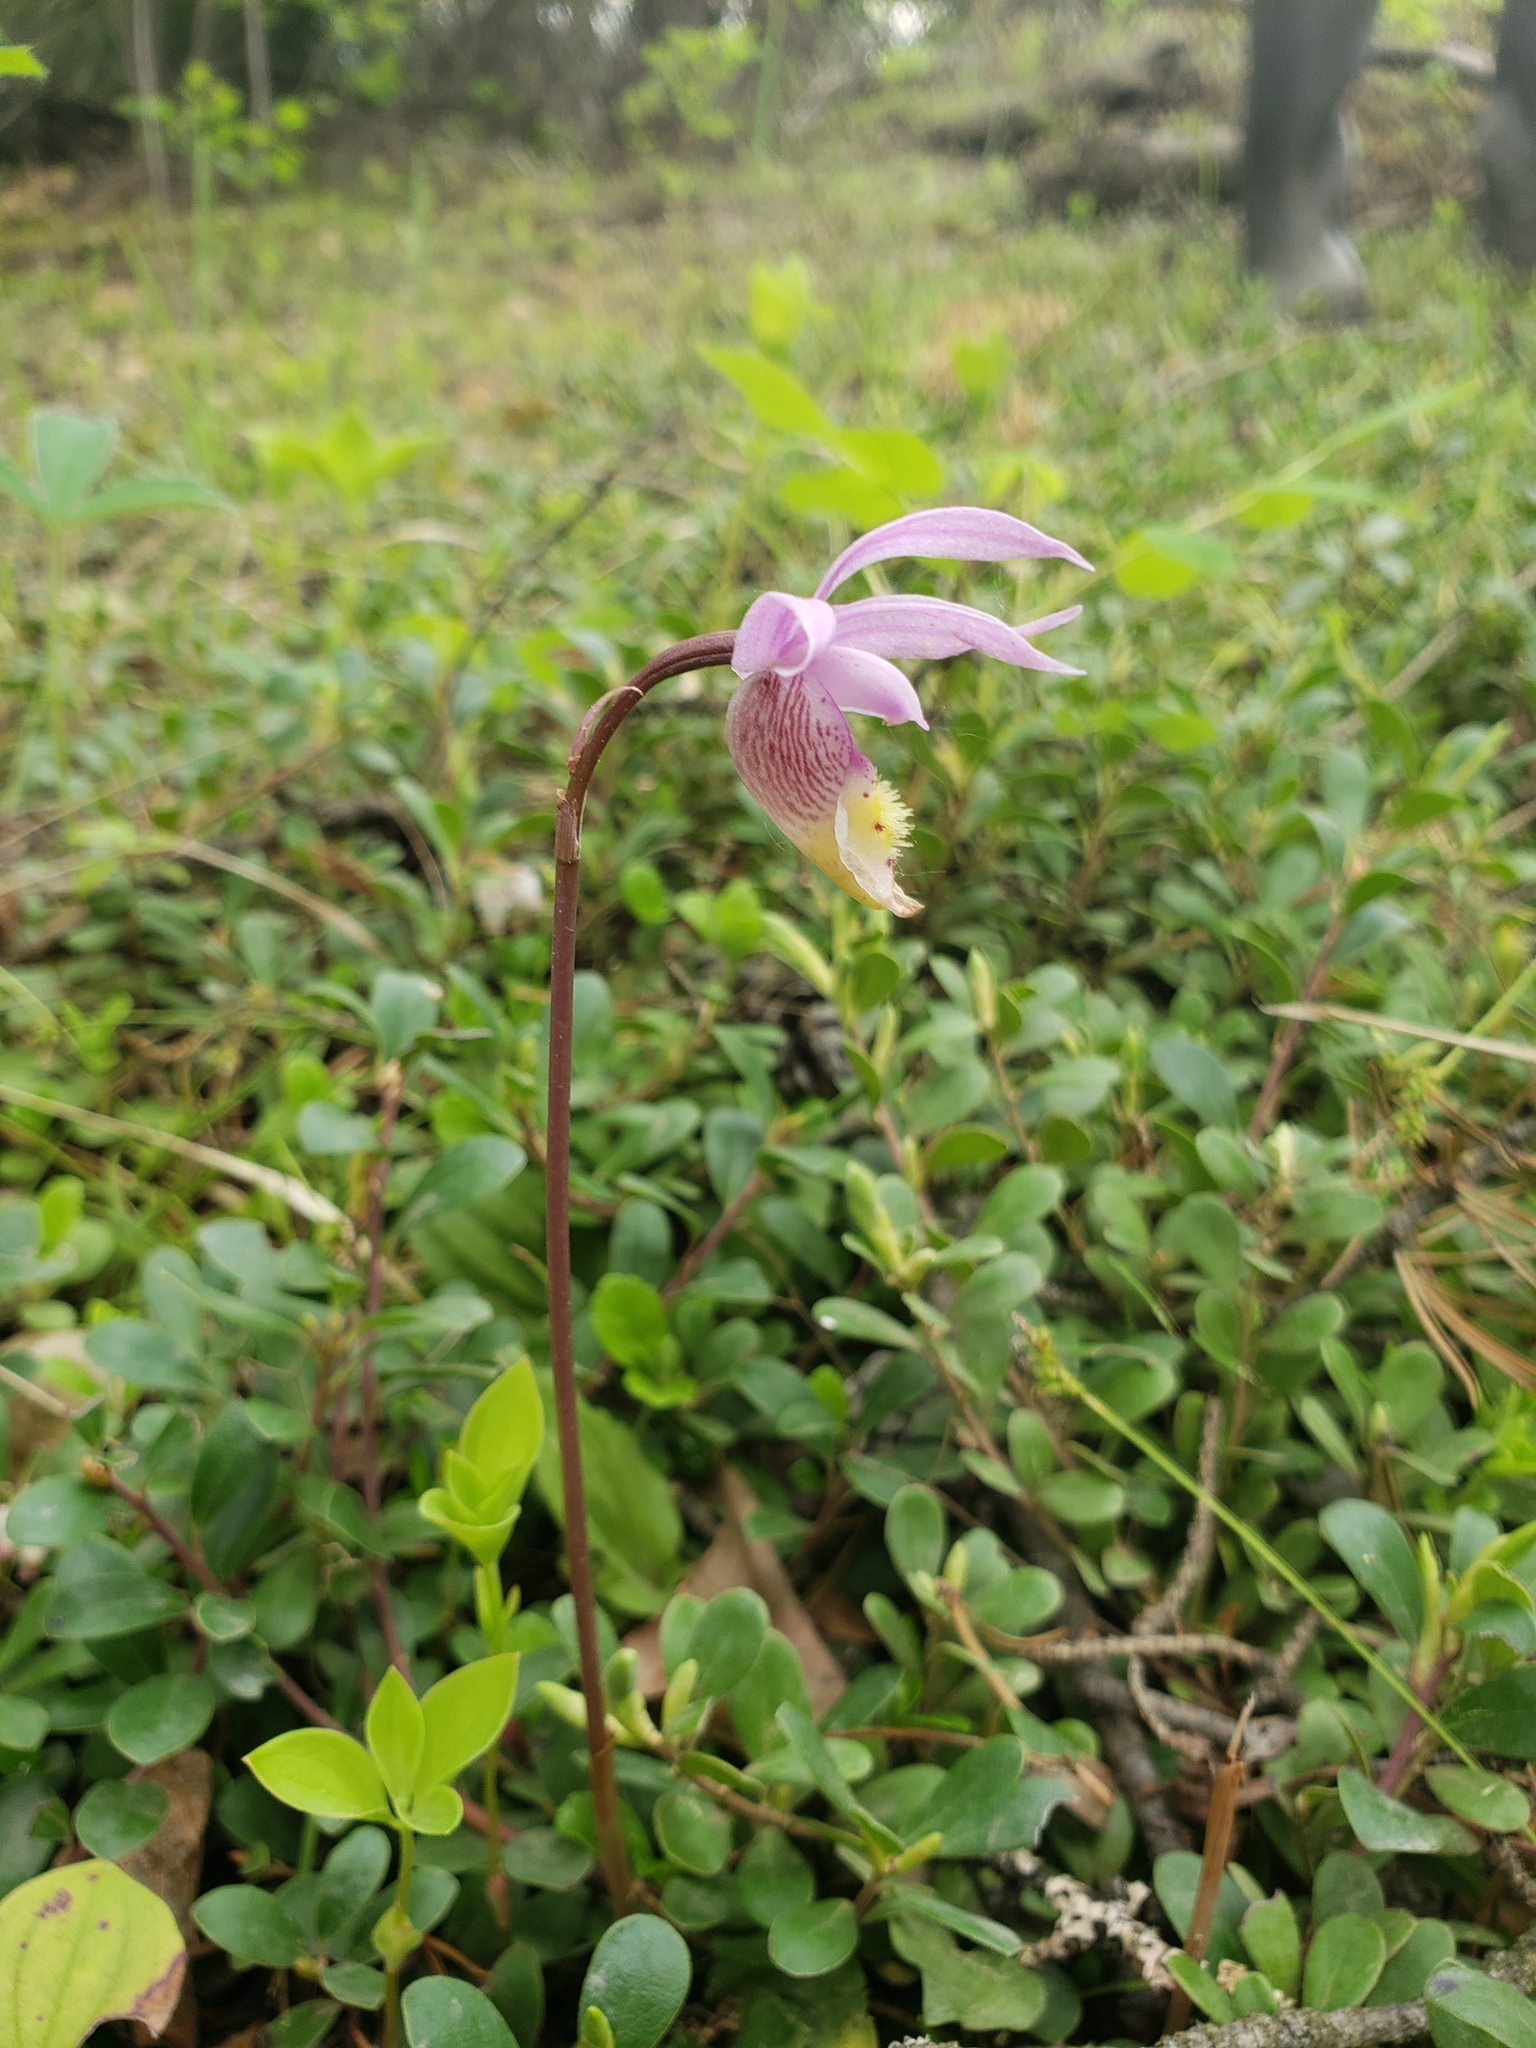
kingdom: Plantae
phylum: Tracheophyta
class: Liliopsida
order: Asparagales
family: Orchidaceae
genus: Calypso
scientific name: Calypso bulbosa
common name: Calypso
